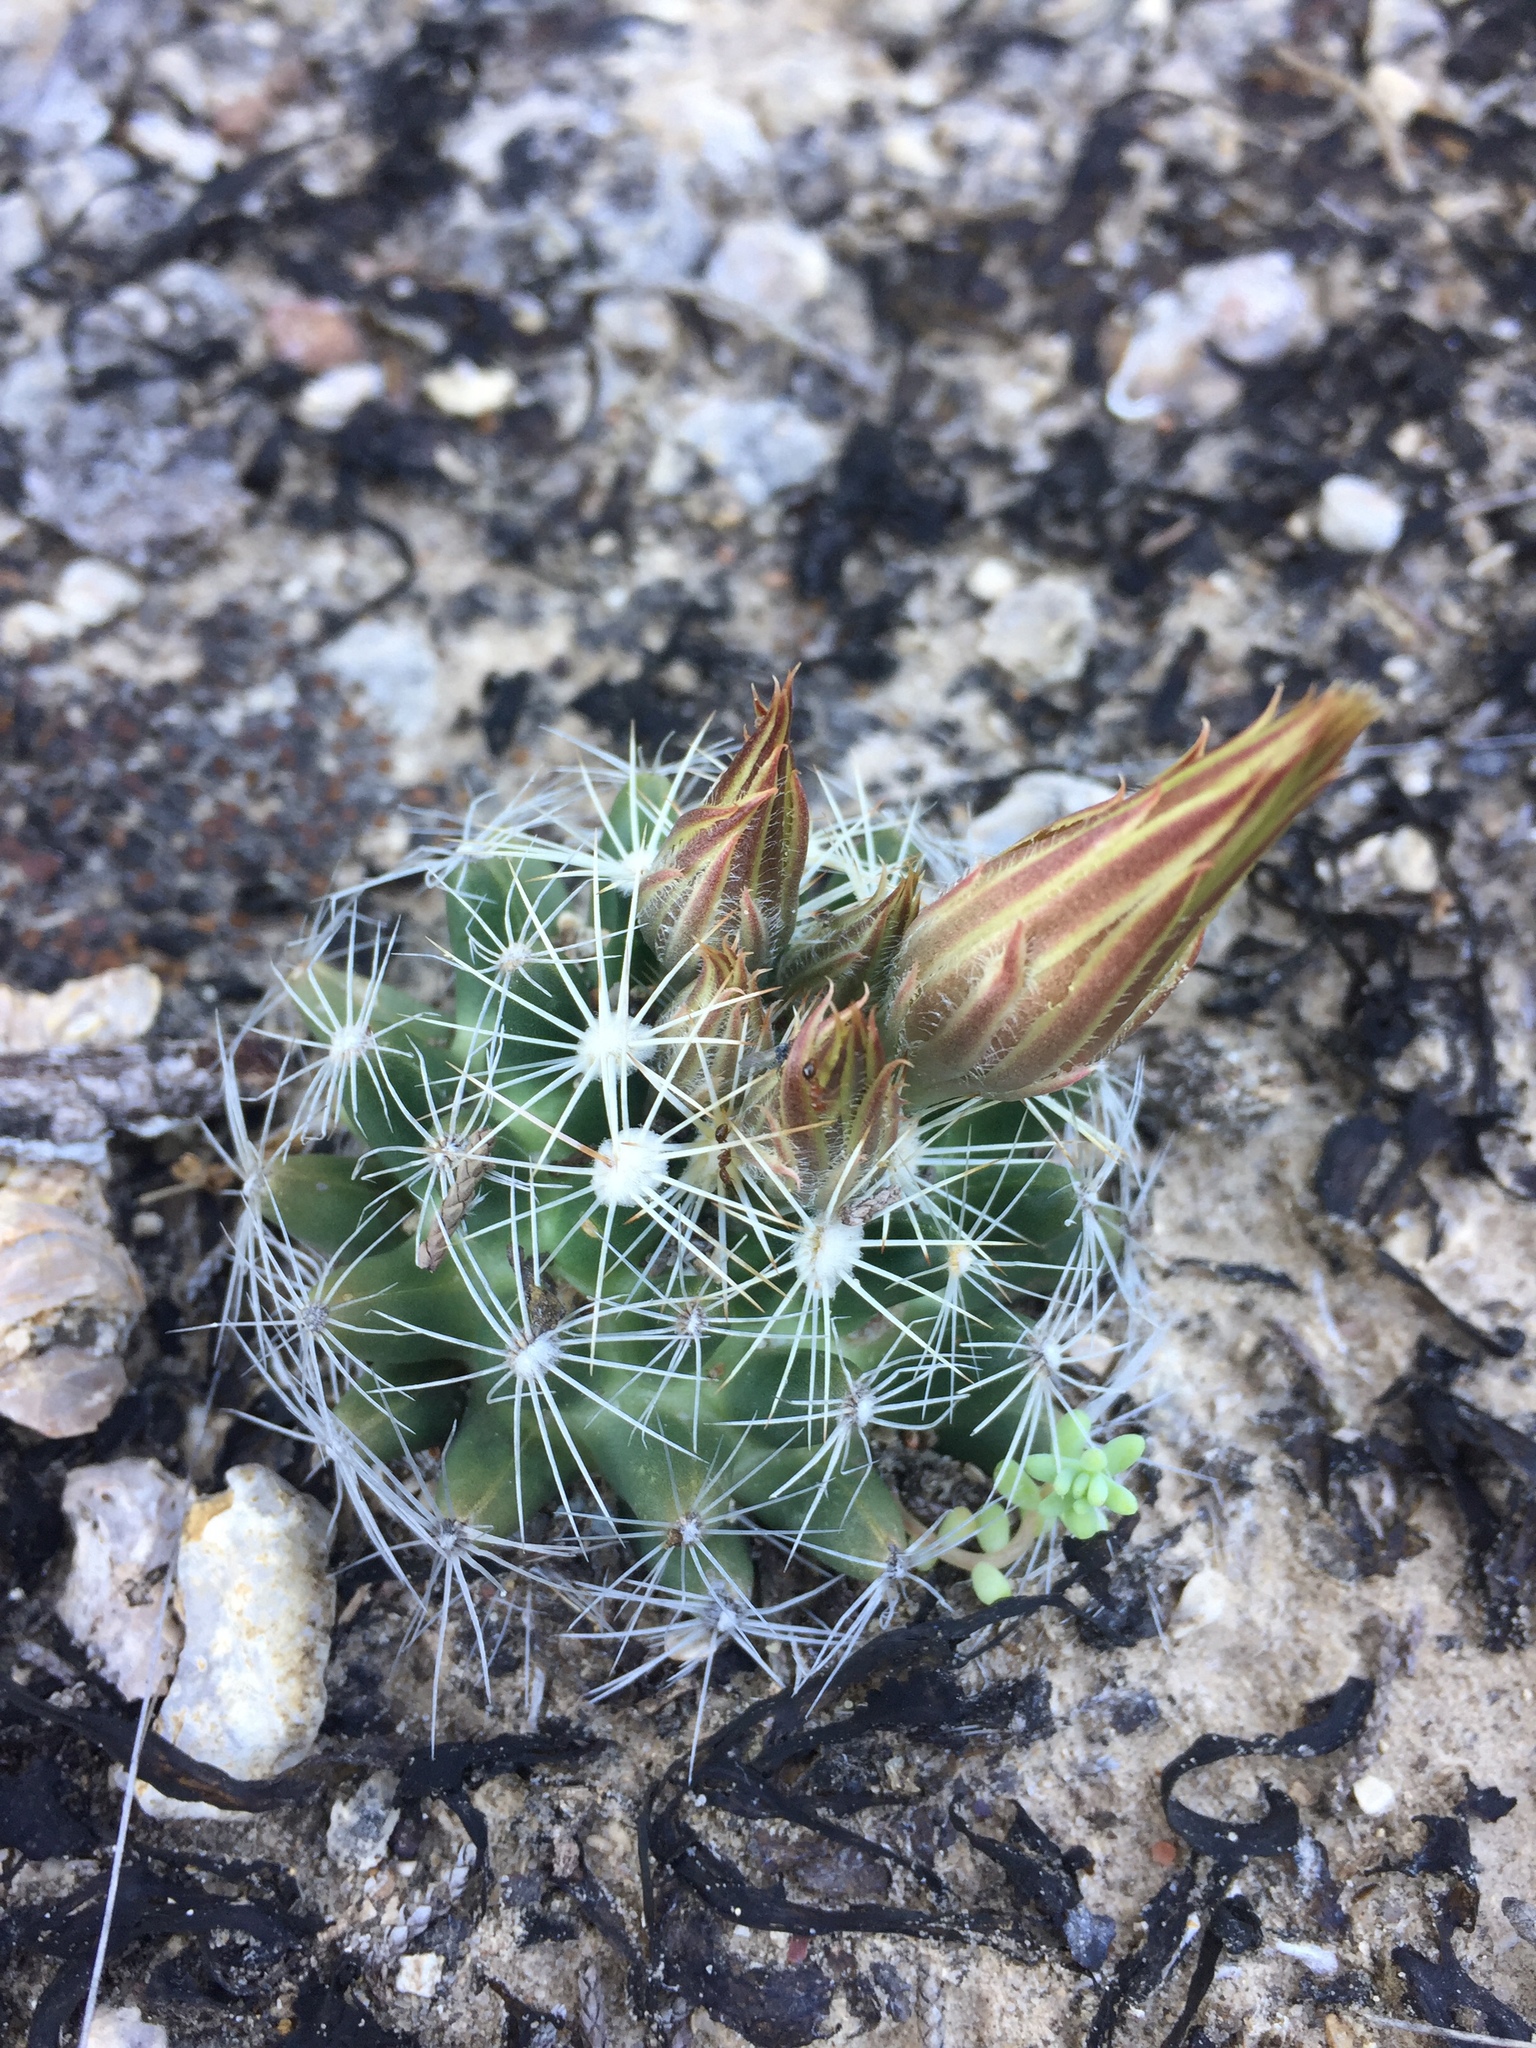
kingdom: Plantae
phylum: Tracheophyta
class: Magnoliopsida
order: Caryophyllales
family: Cactaceae
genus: Pelecyphora
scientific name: Pelecyphora missouriensis
